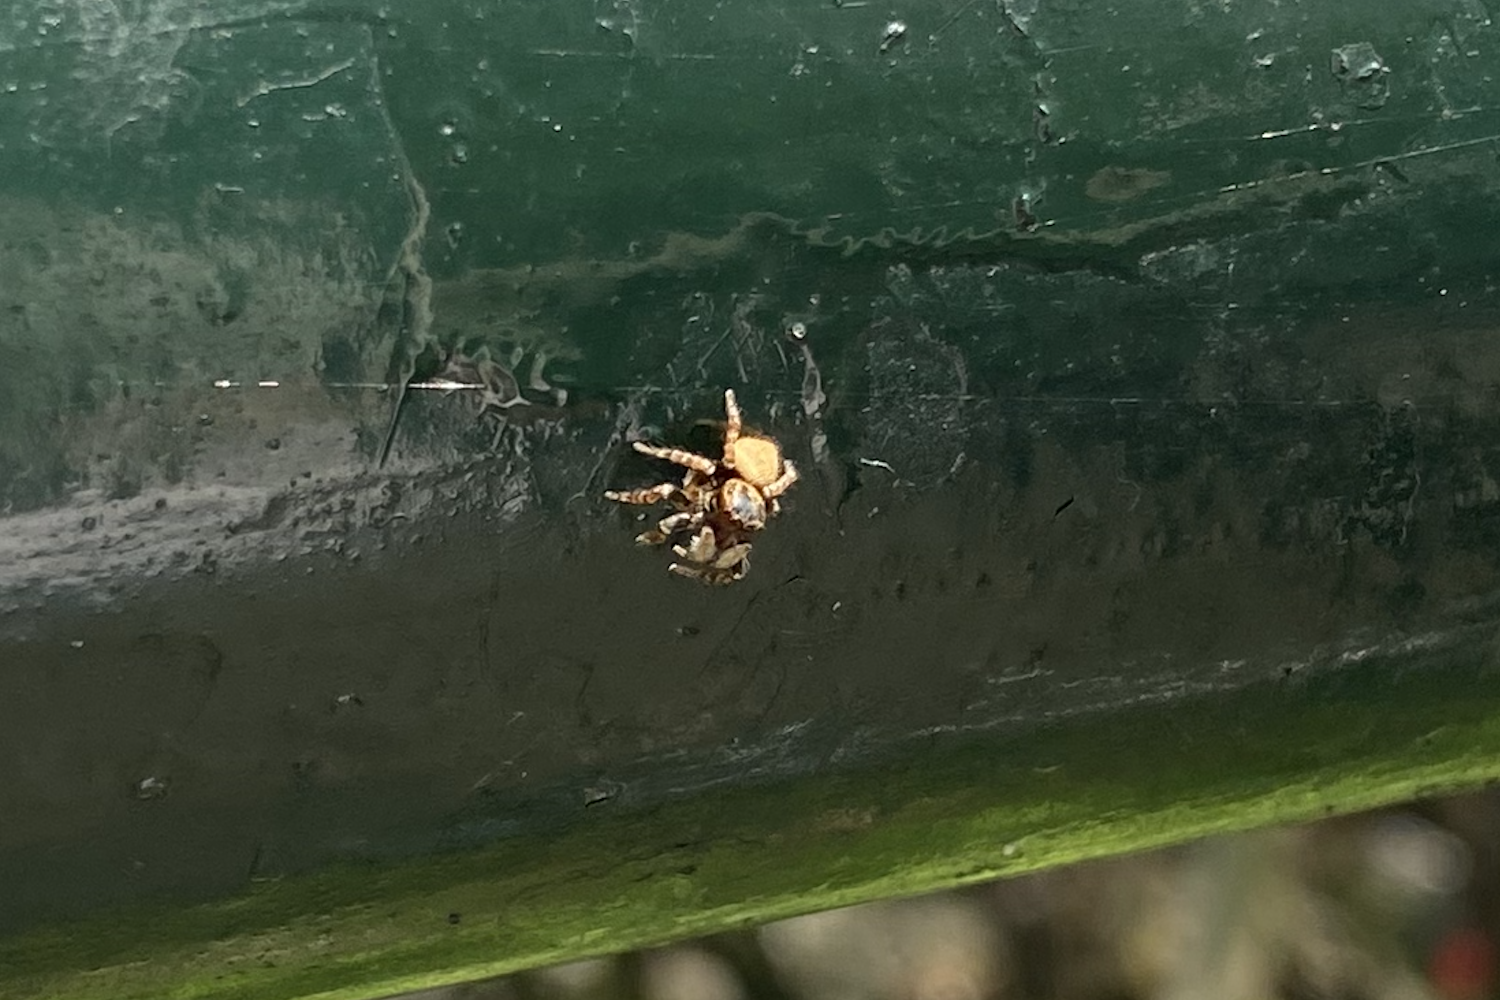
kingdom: Animalia
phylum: Arthropoda
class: Arachnida
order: Araneae
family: Salticidae
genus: Carrhotus
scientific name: Carrhotus sannio
